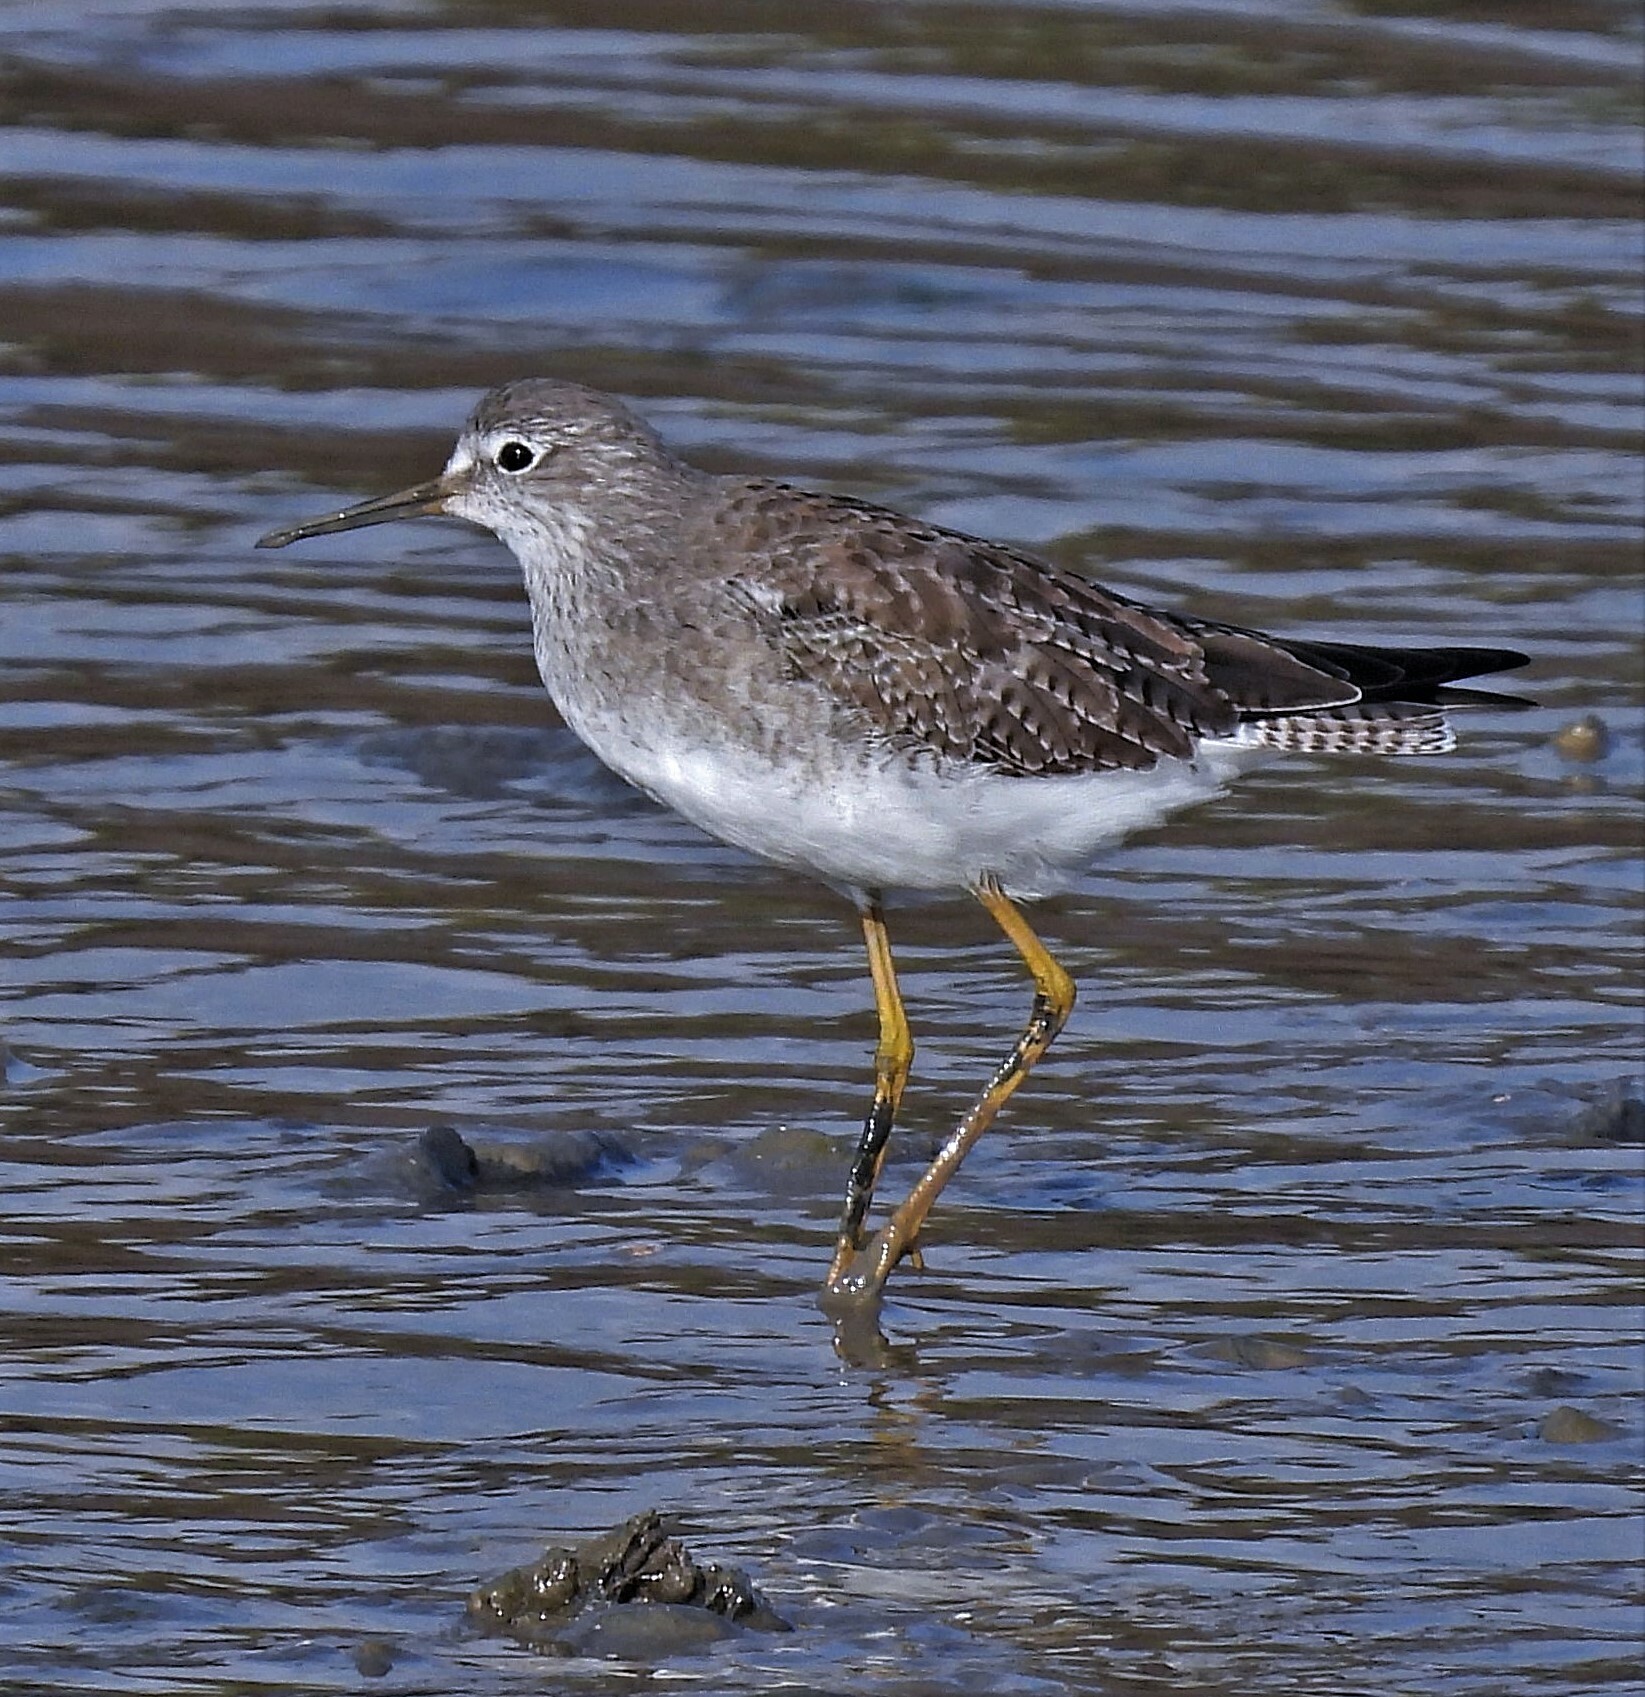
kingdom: Animalia
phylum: Chordata
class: Aves
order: Charadriiformes
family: Scolopacidae
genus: Tringa
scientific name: Tringa flavipes
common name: Lesser yellowlegs
